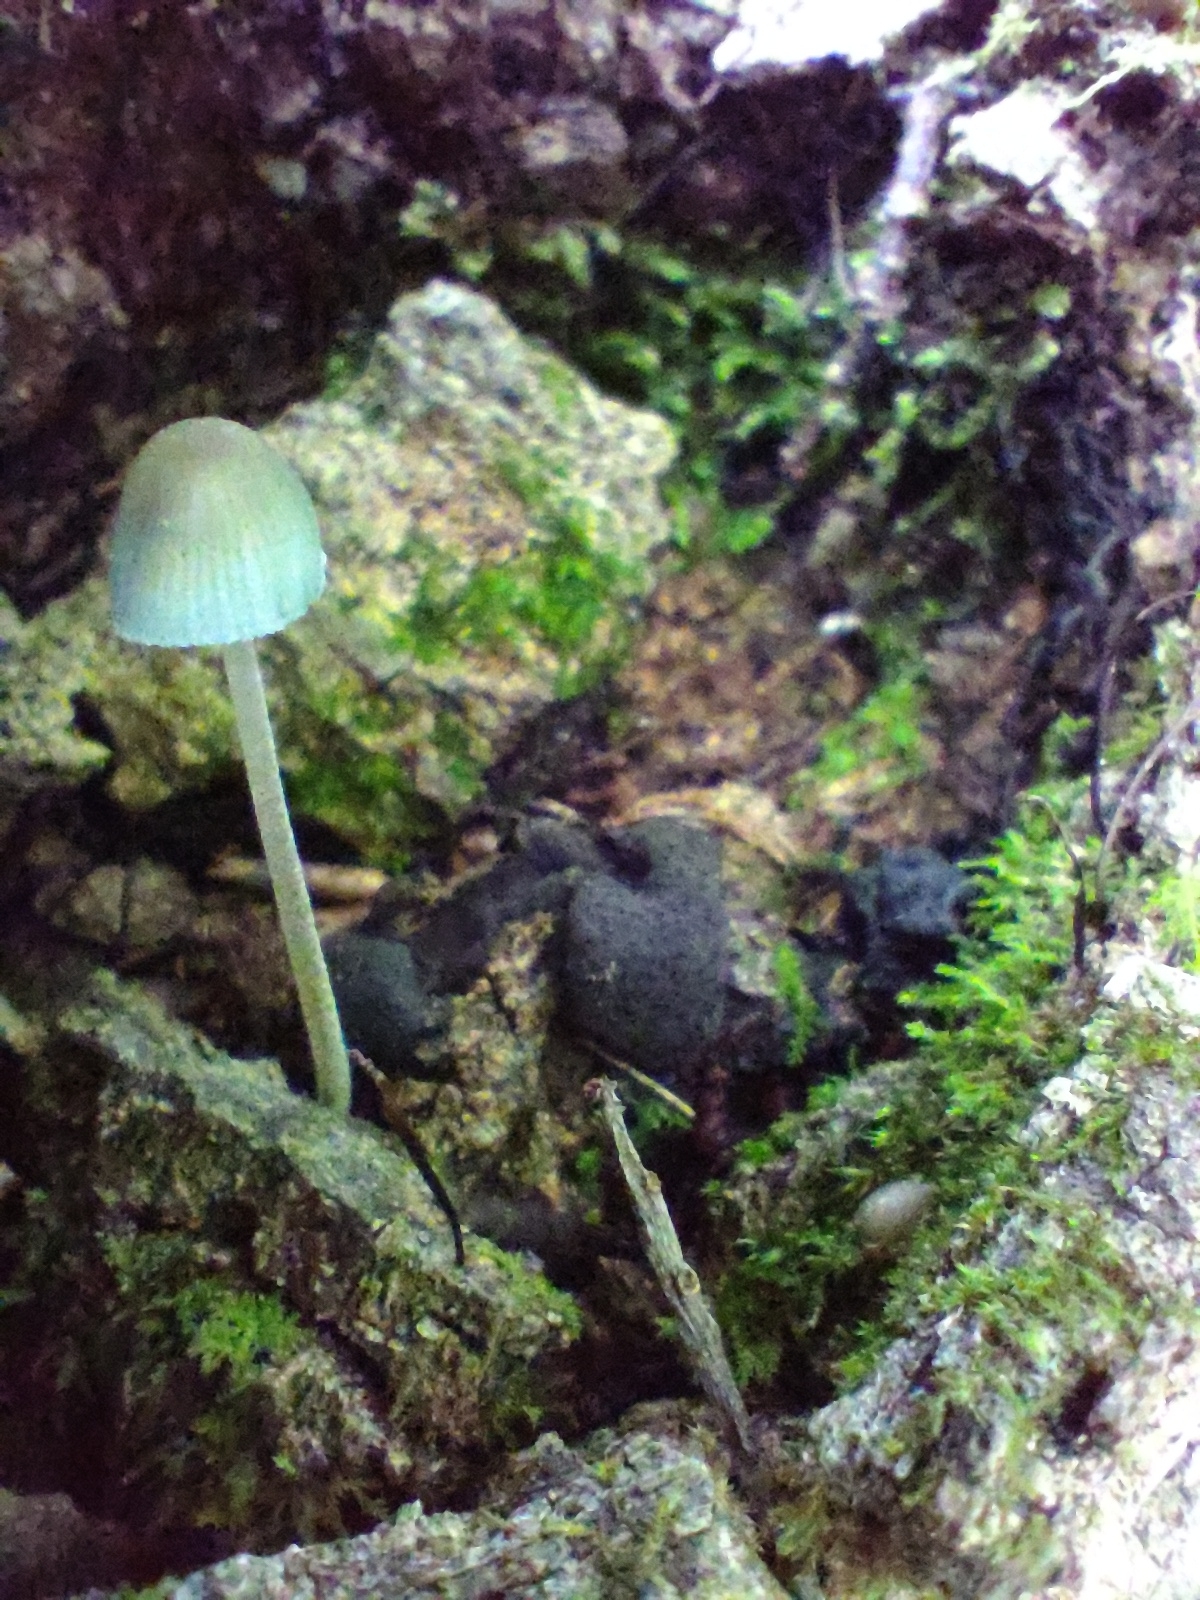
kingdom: Fungi
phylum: Basidiomycota
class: Agaricomycetes
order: Agaricales
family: Mycenaceae
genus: Mycena
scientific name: Mycena subcaerulea
